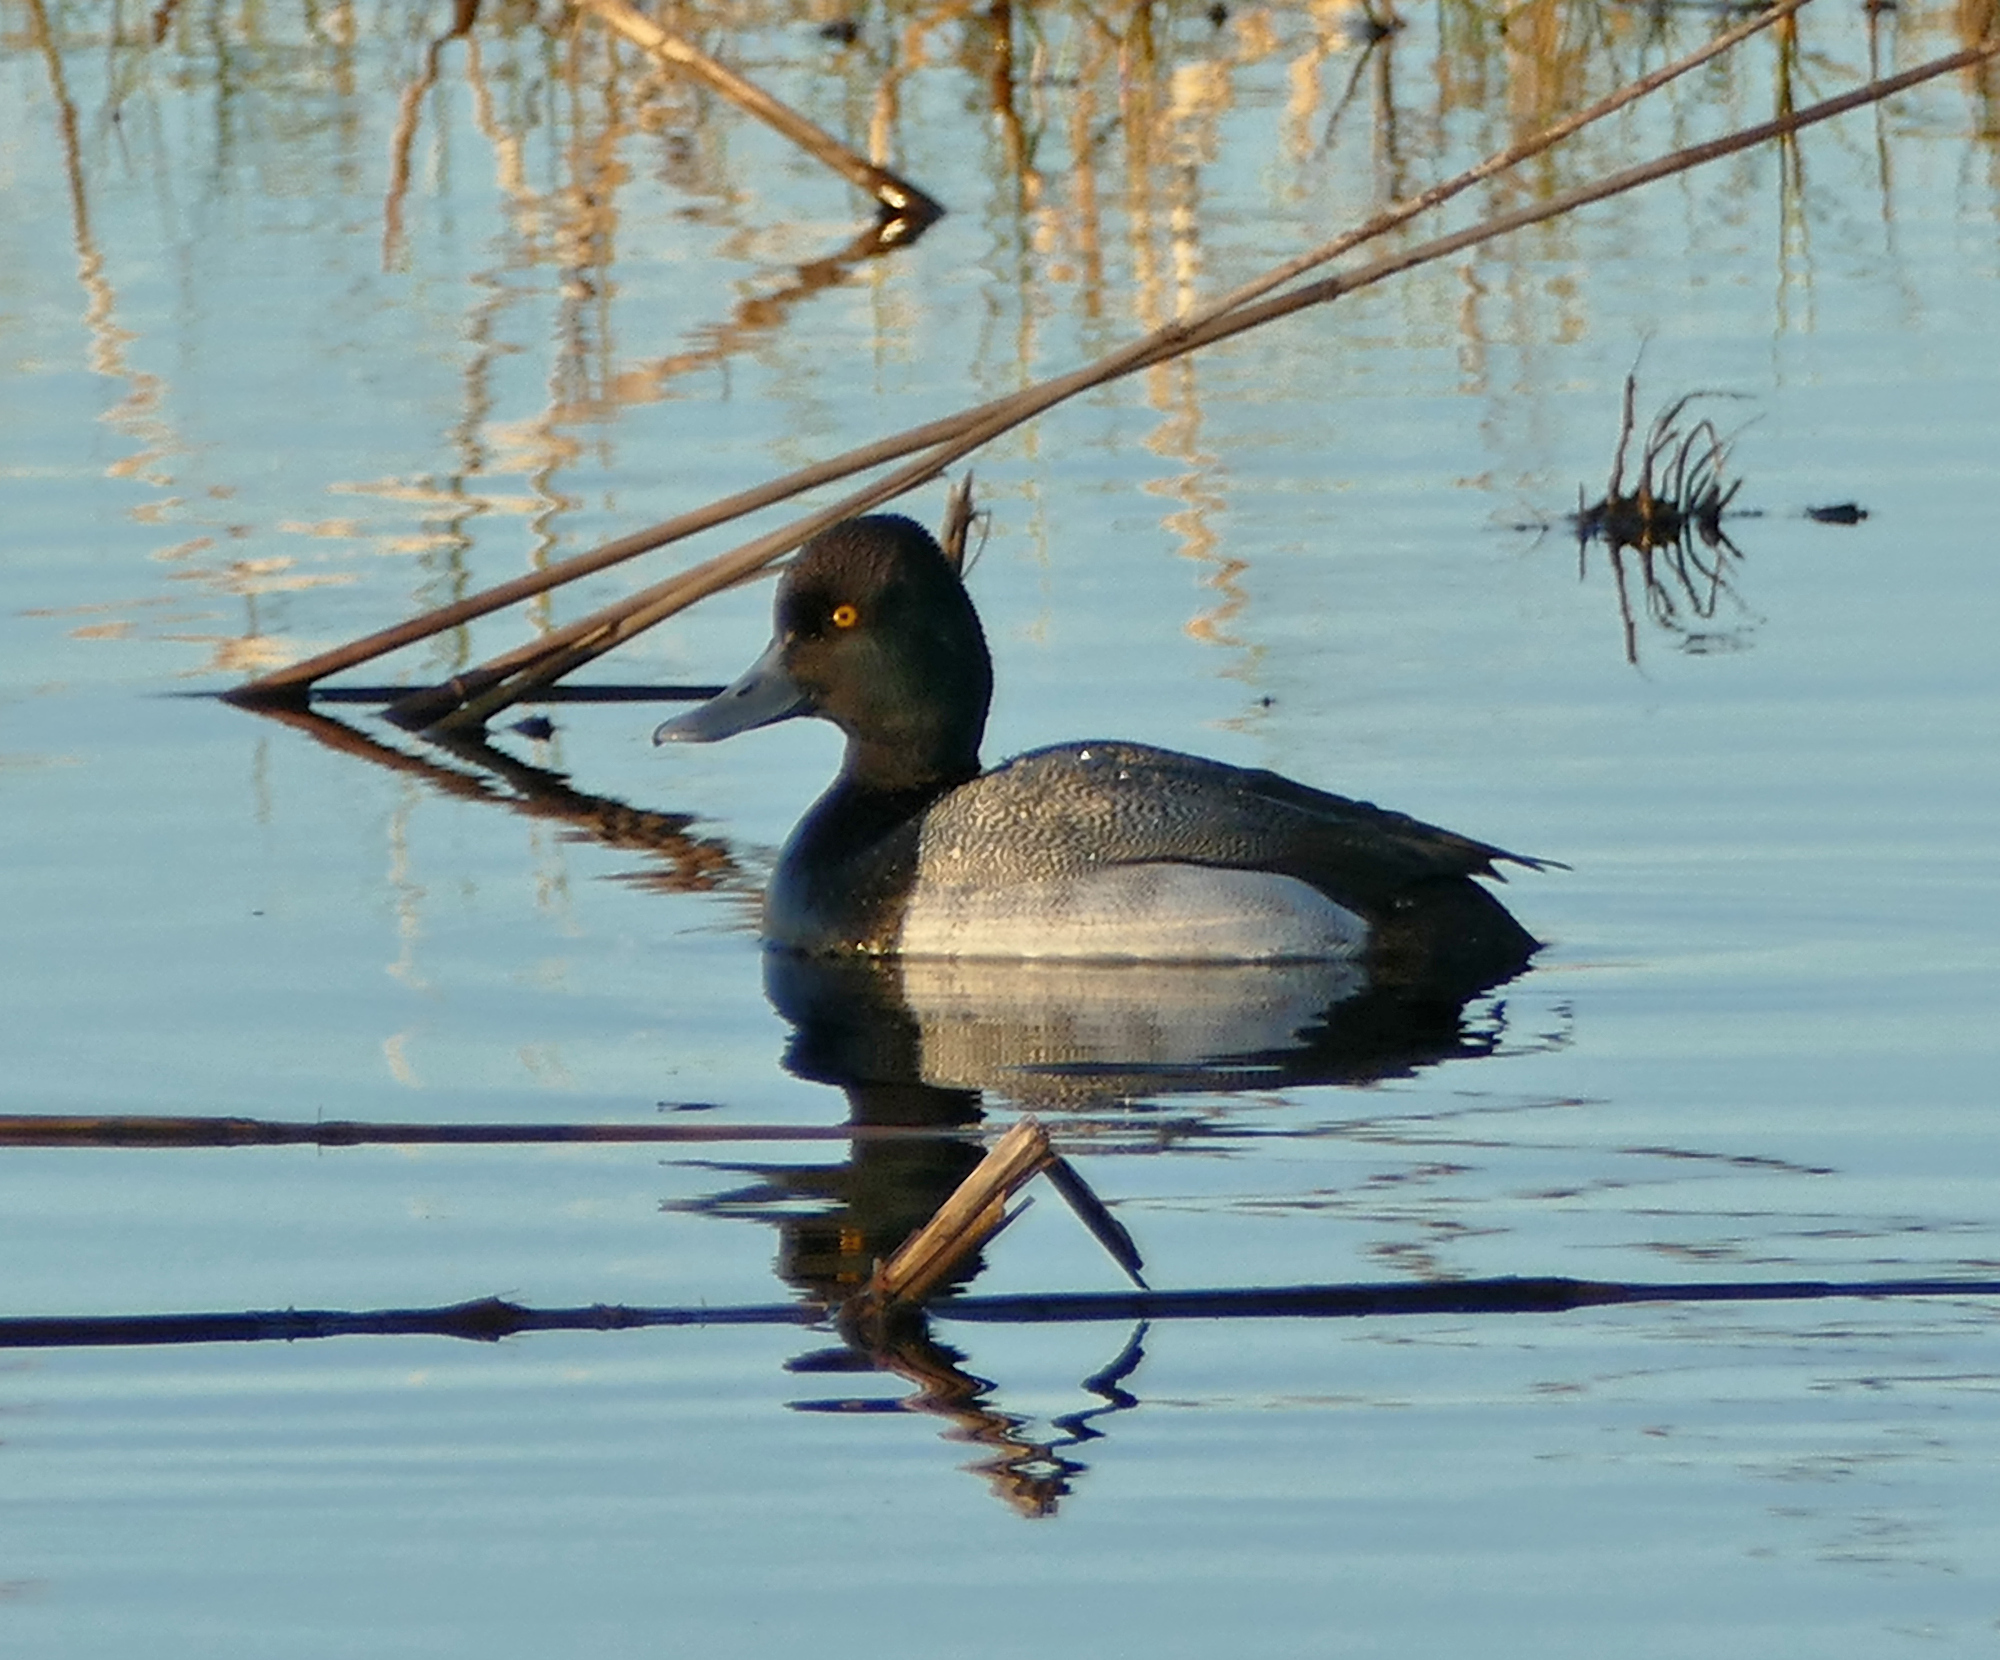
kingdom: Animalia
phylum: Chordata
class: Aves
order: Anseriformes
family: Anatidae
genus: Aythya
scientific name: Aythya affinis
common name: Lesser scaup
